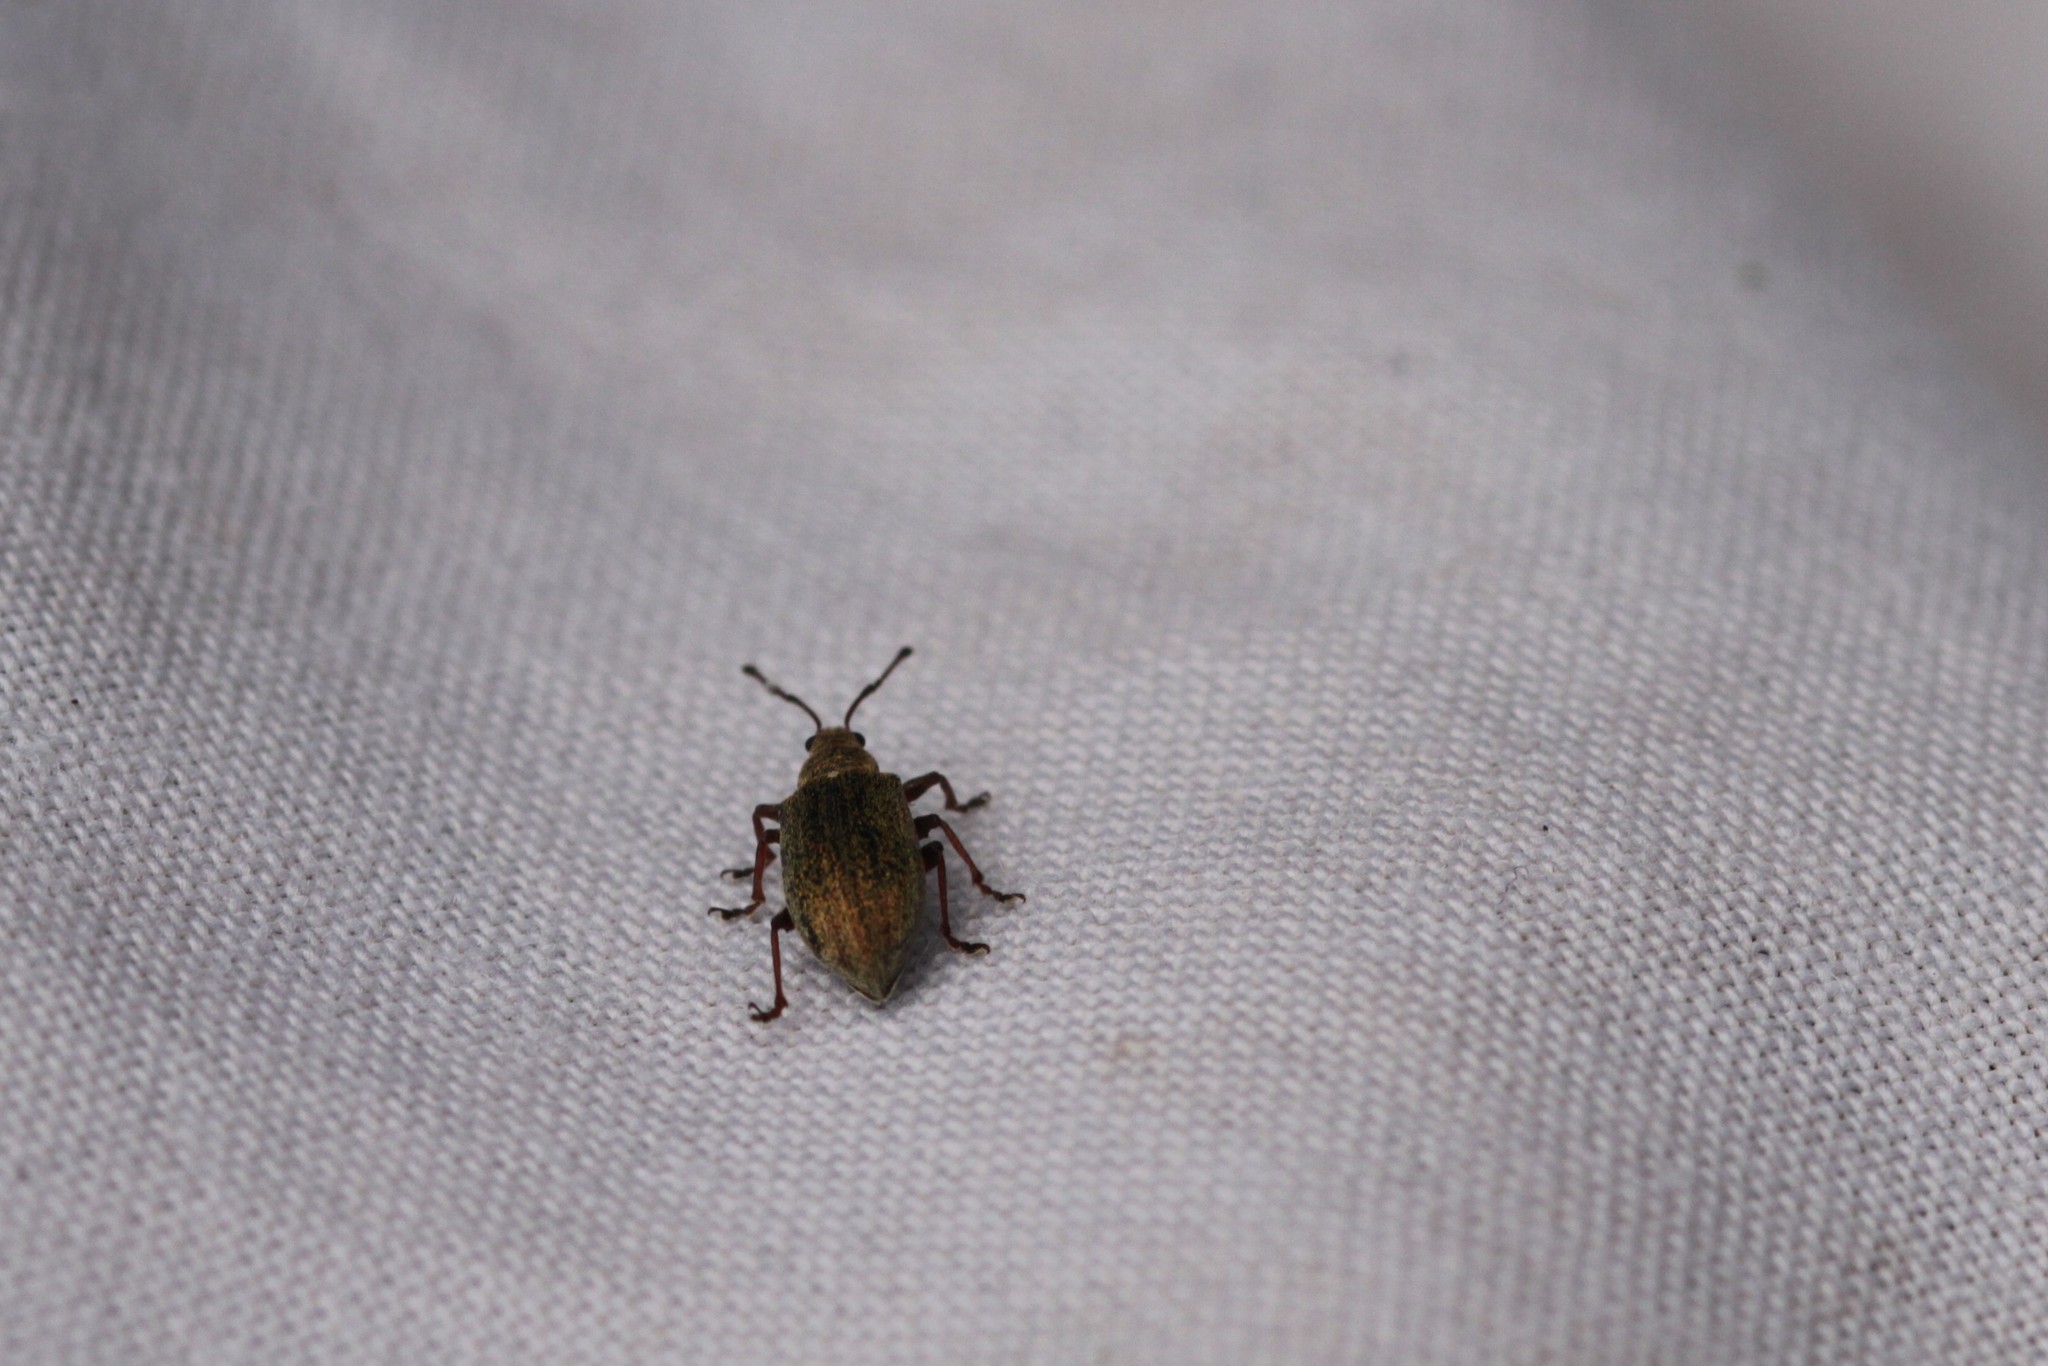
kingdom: Animalia
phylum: Arthropoda
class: Insecta
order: Coleoptera
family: Curculionidae
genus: Phyllobius
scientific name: Phyllobius pyri
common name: Common leaf weevil
